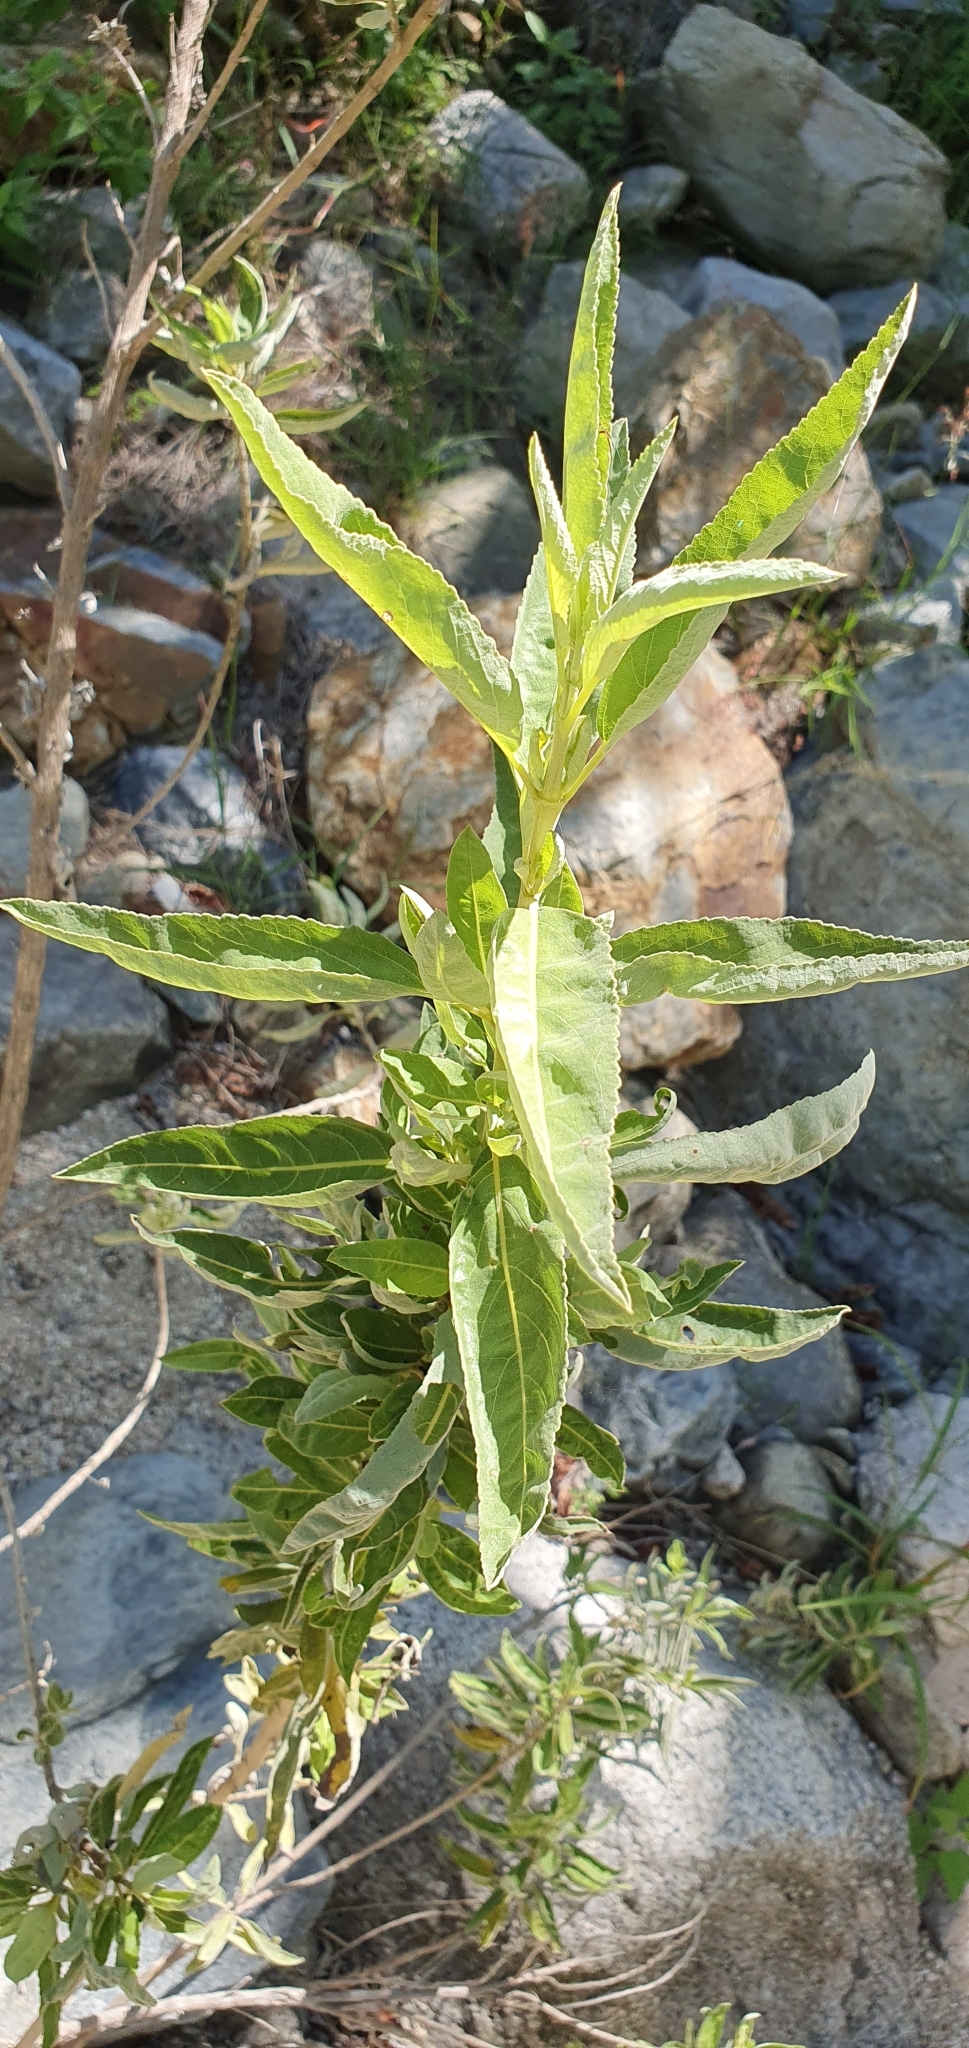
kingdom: Plantae
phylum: Tracheophyta
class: Magnoliopsida
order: Lamiales
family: Lamiaceae
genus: Condea
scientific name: Condea tephrodes
